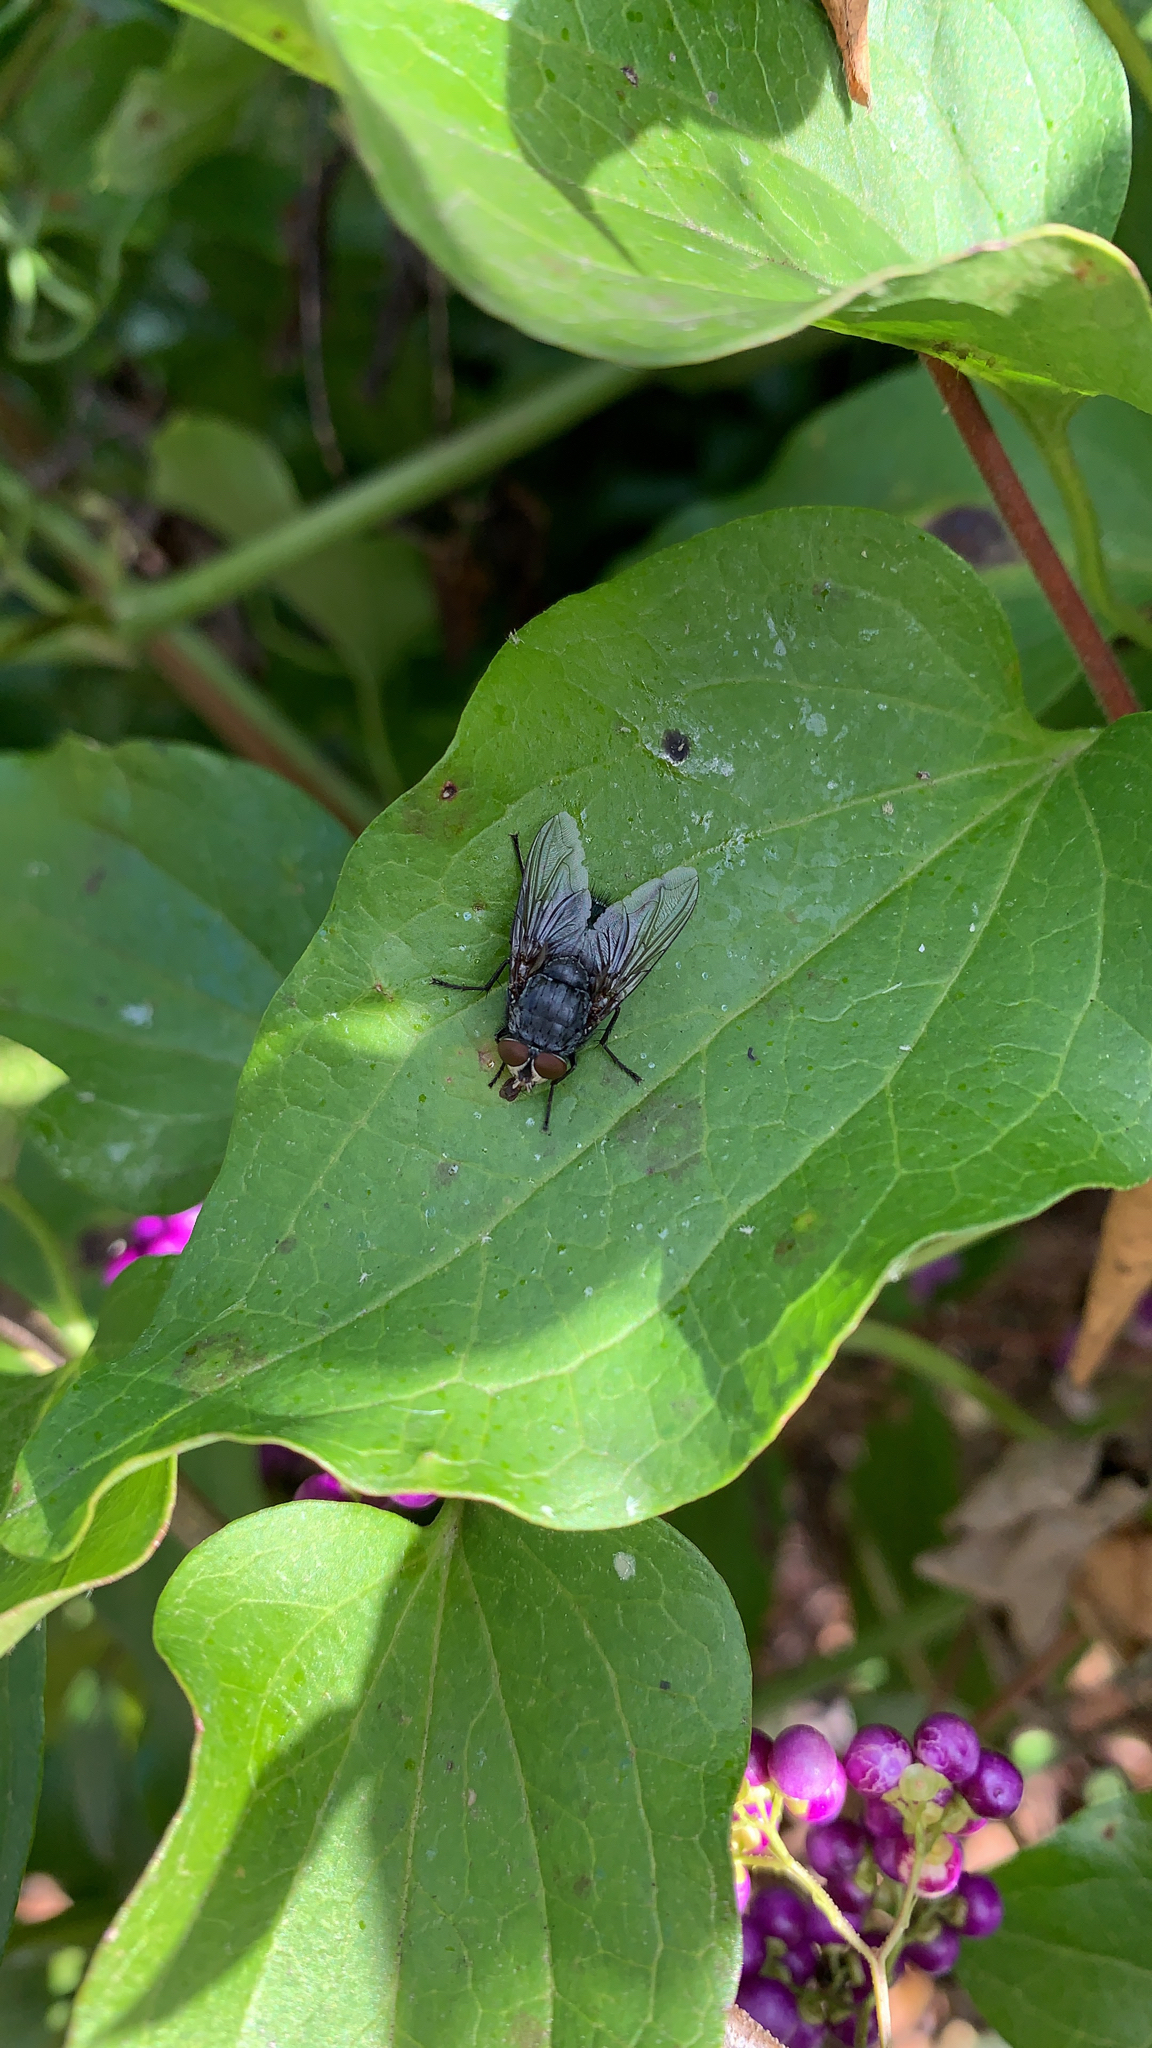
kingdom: Animalia
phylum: Arthropoda
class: Insecta
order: Diptera
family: Calliphoridae
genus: Calliphora
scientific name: Calliphora vicina
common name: Common blow flie
